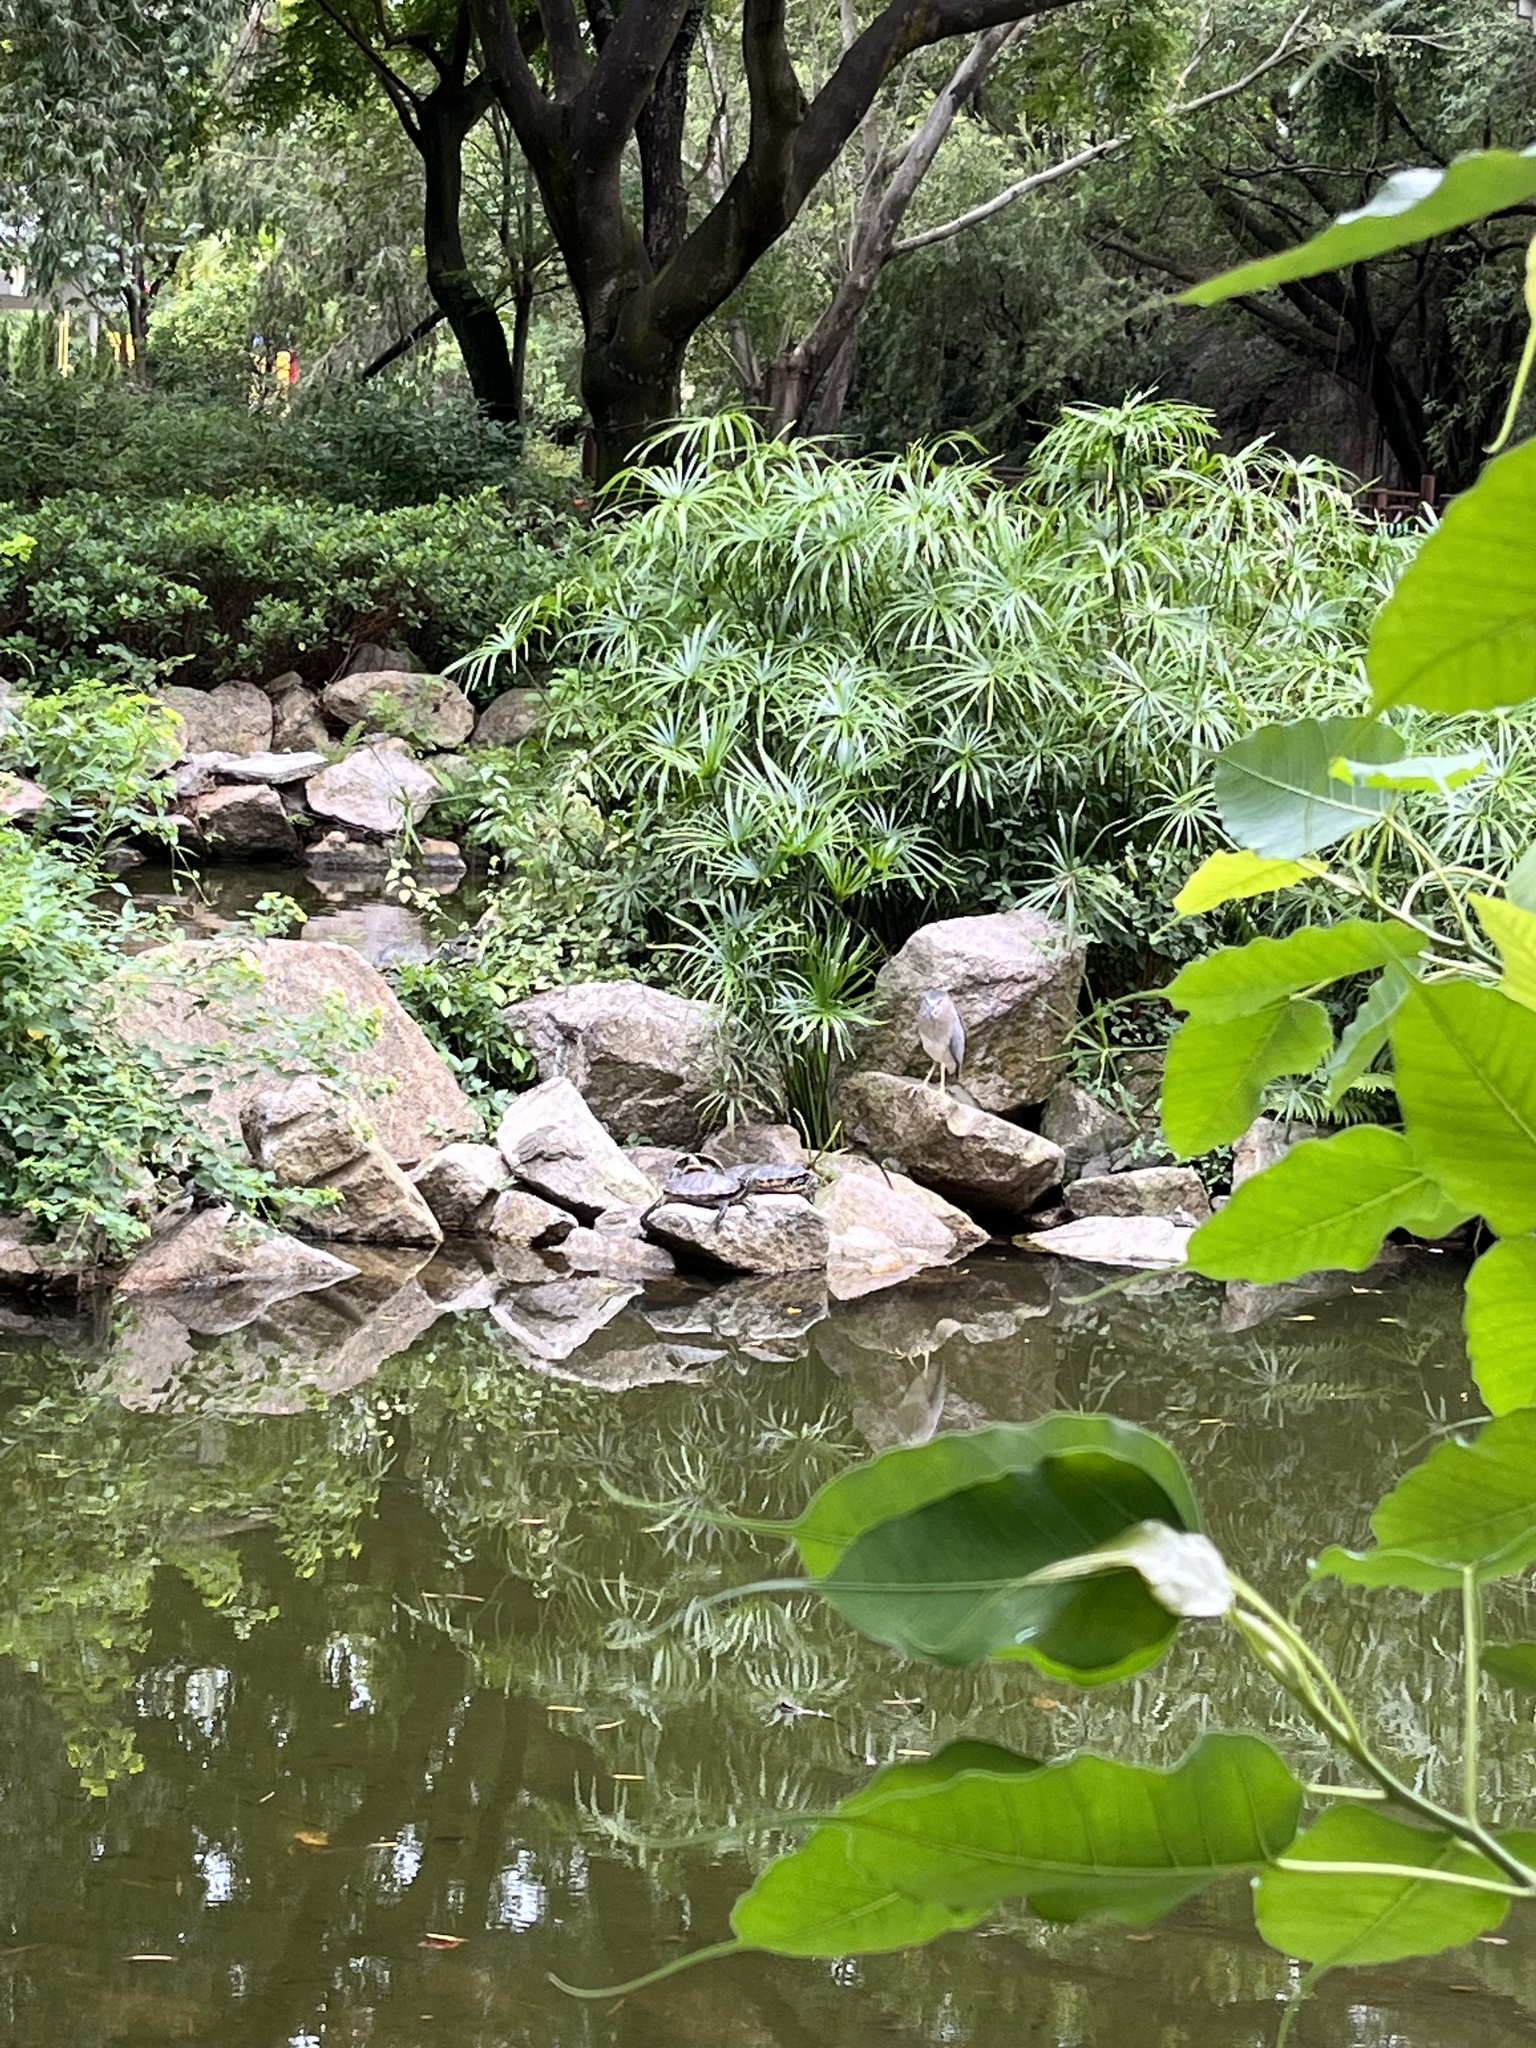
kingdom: Animalia
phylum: Chordata
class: Aves
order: Pelecaniformes
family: Ardeidae
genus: Nycticorax
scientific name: Nycticorax nycticorax
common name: Black-crowned night heron
